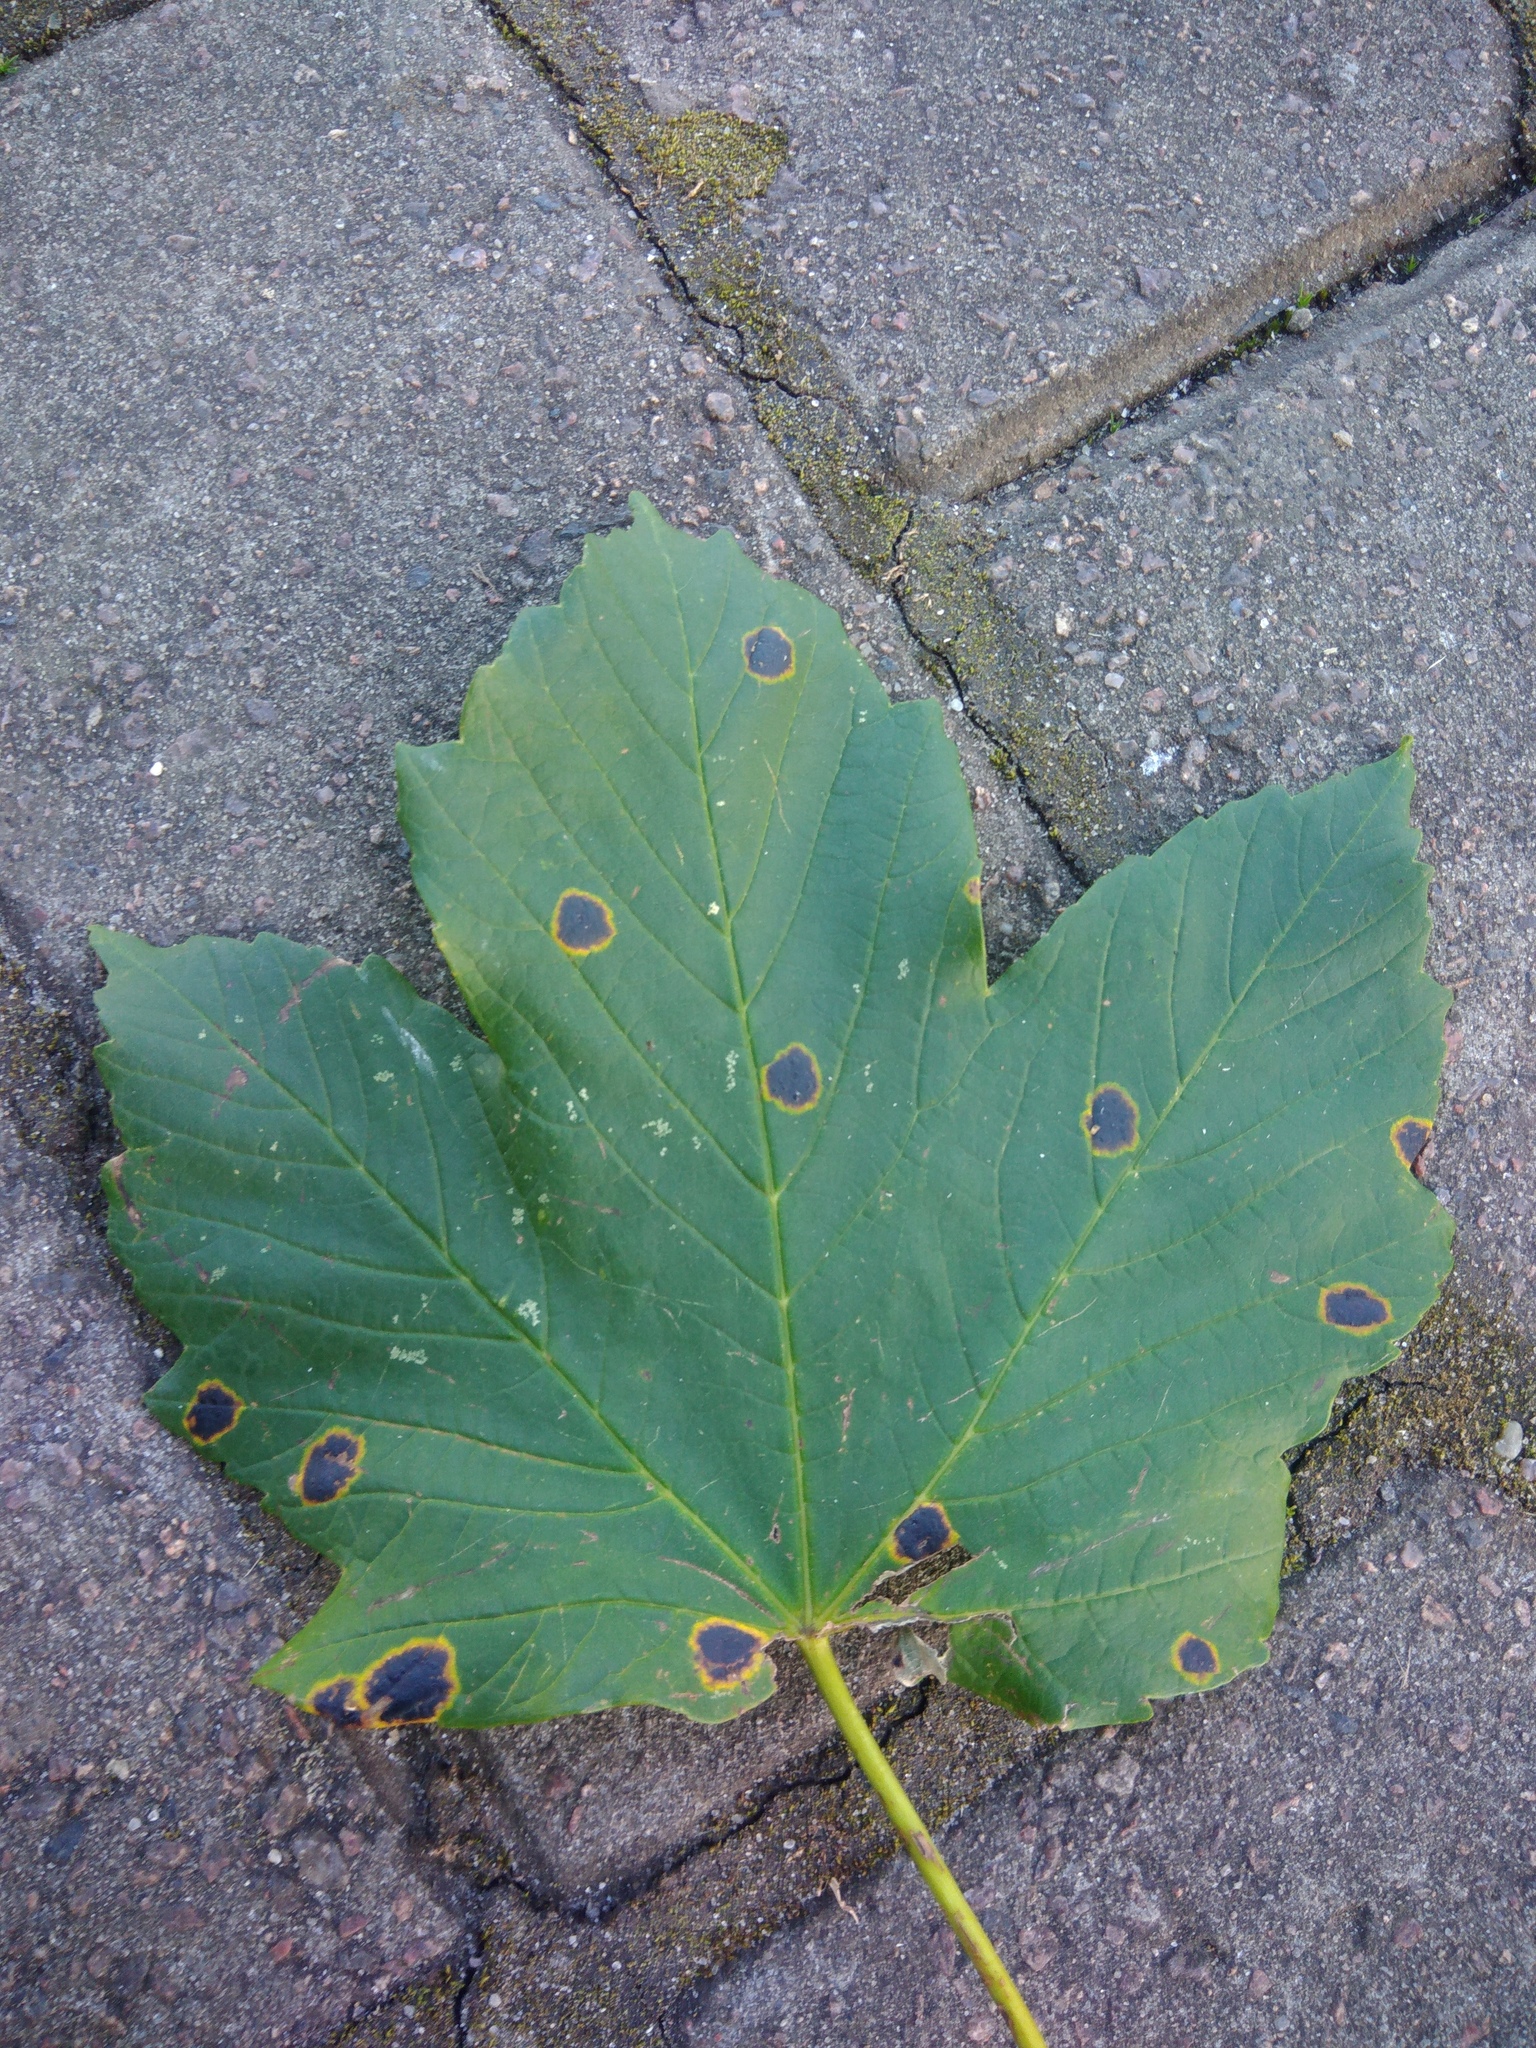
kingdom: Fungi
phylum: Ascomycota
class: Leotiomycetes
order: Rhytismatales
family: Rhytismataceae
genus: Rhytisma
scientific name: Rhytisma acerinum
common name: European tar spot
